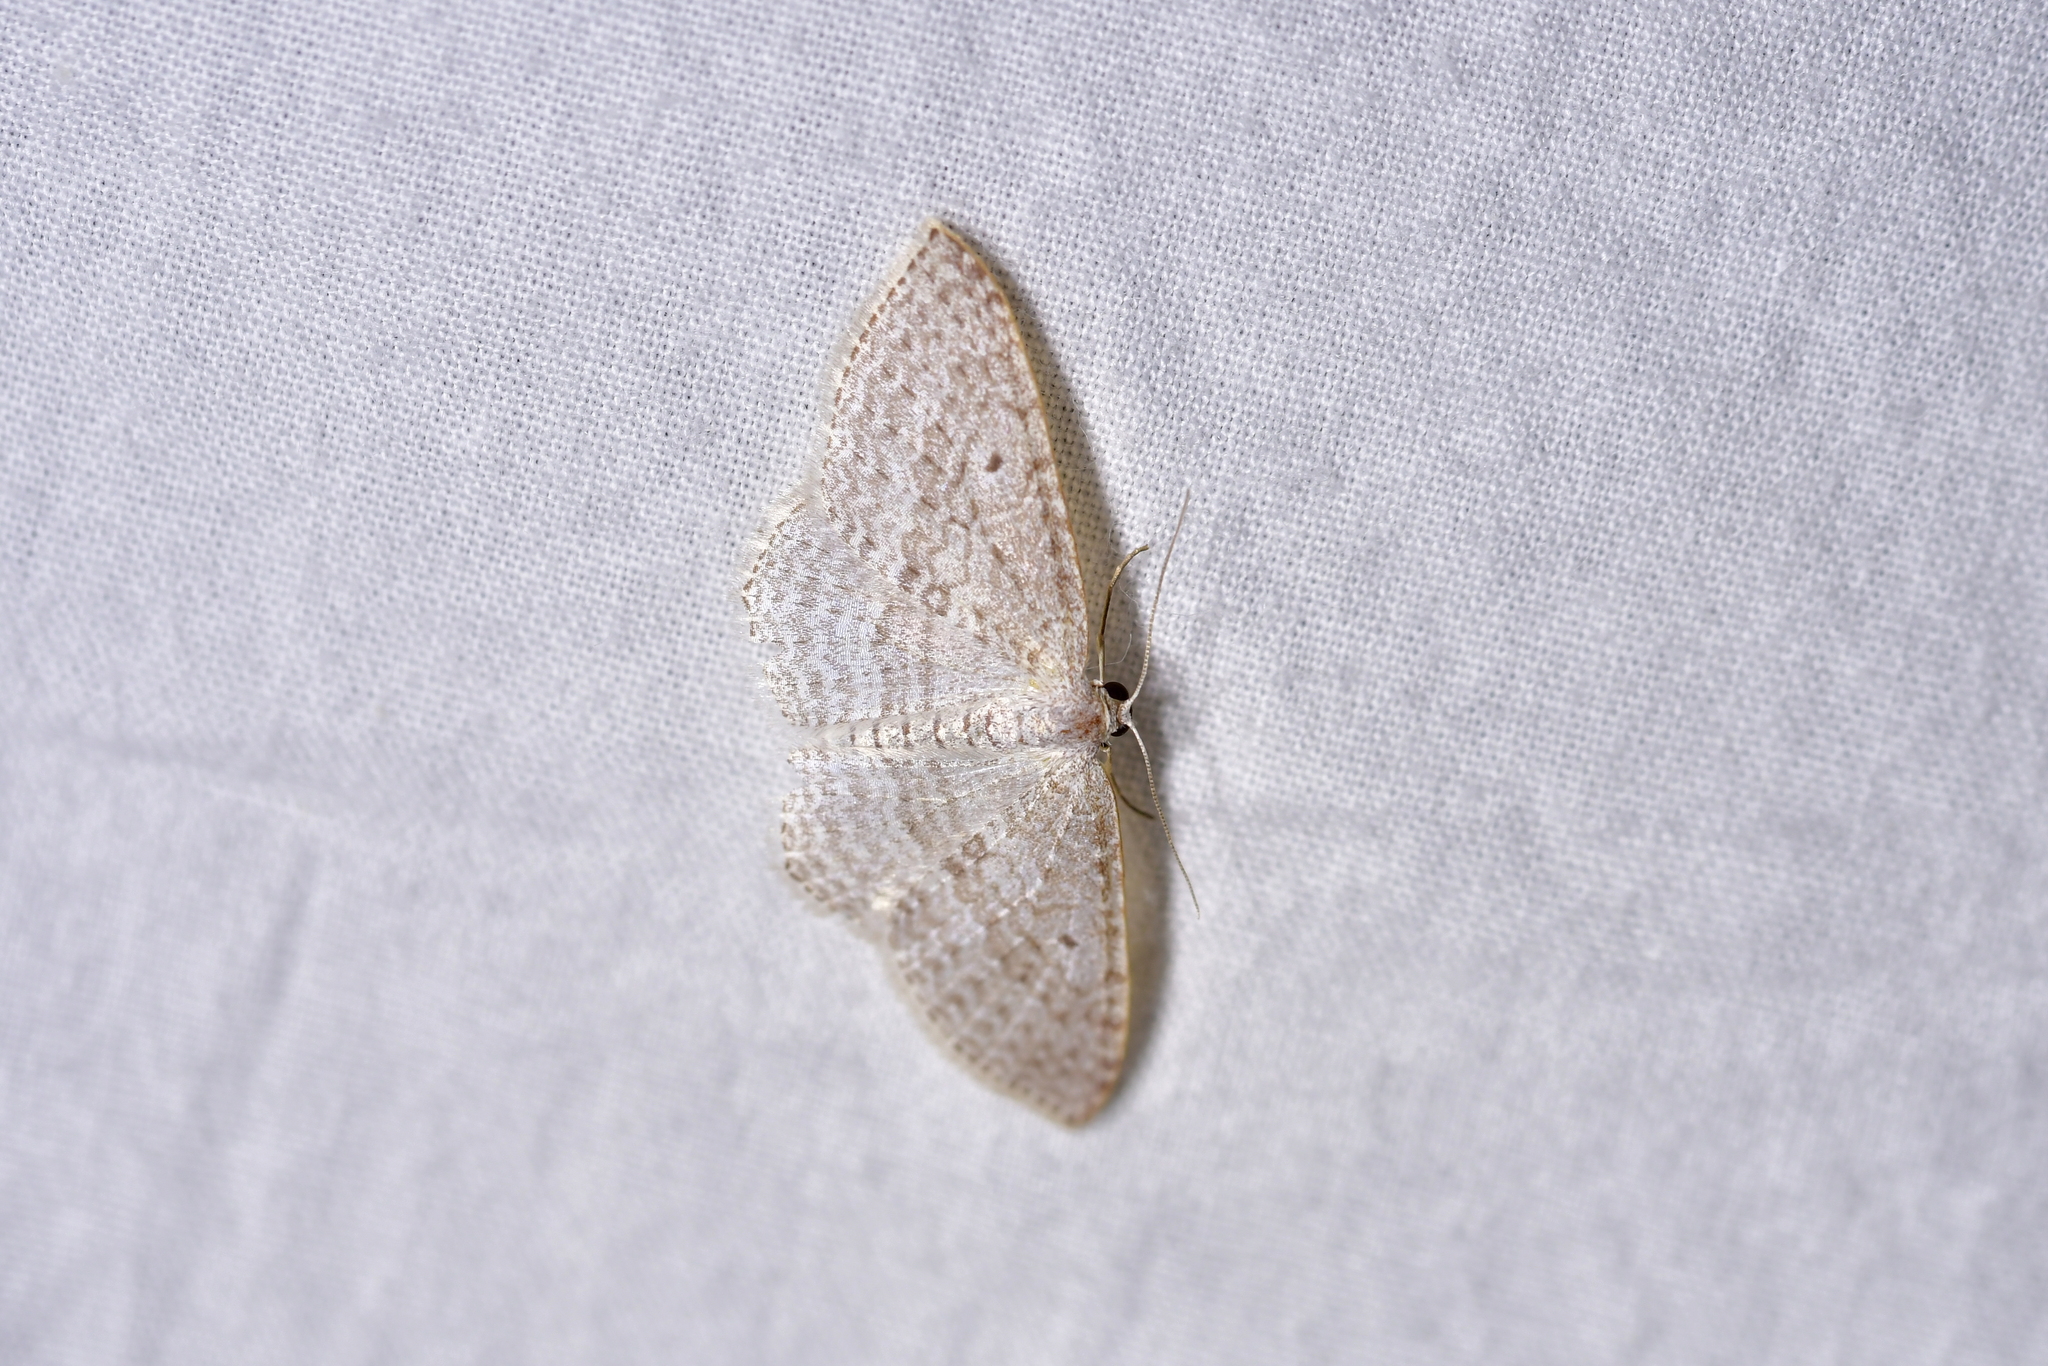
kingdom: Animalia
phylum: Arthropoda
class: Insecta
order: Lepidoptera
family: Geometridae
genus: Poecilasthena
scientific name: Poecilasthena subpurpureata
